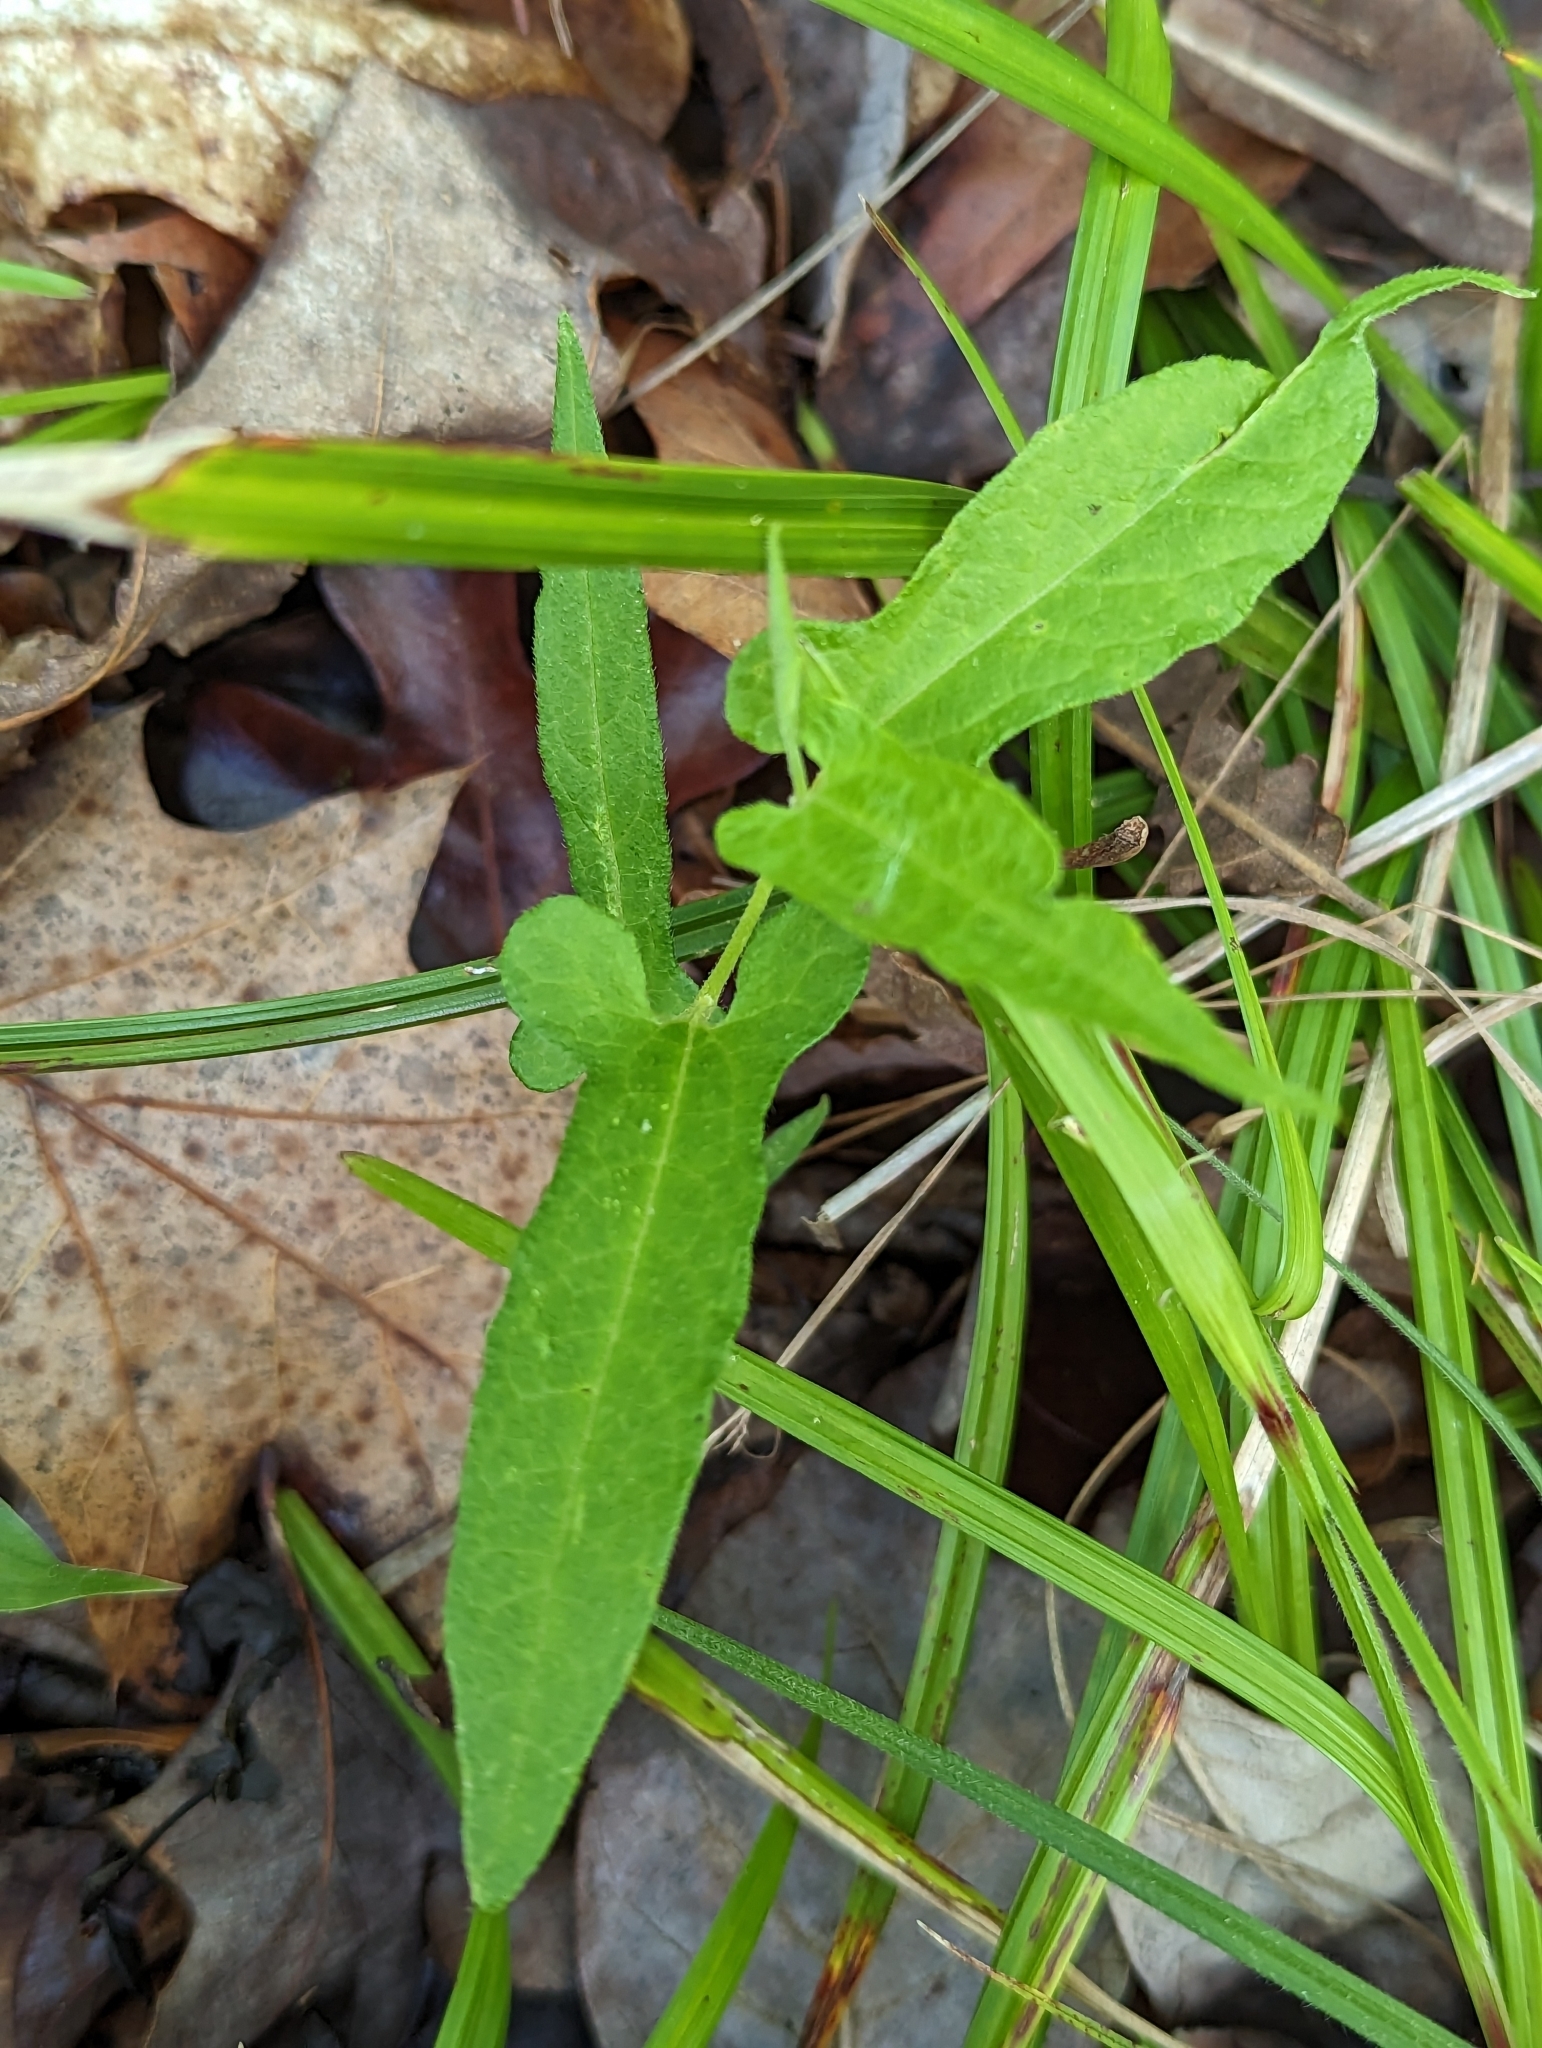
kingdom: Plantae
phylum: Tracheophyta
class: Magnoliopsida
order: Piperales
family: Aristolochiaceae
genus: Endodeca
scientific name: Endodeca serpentaria
